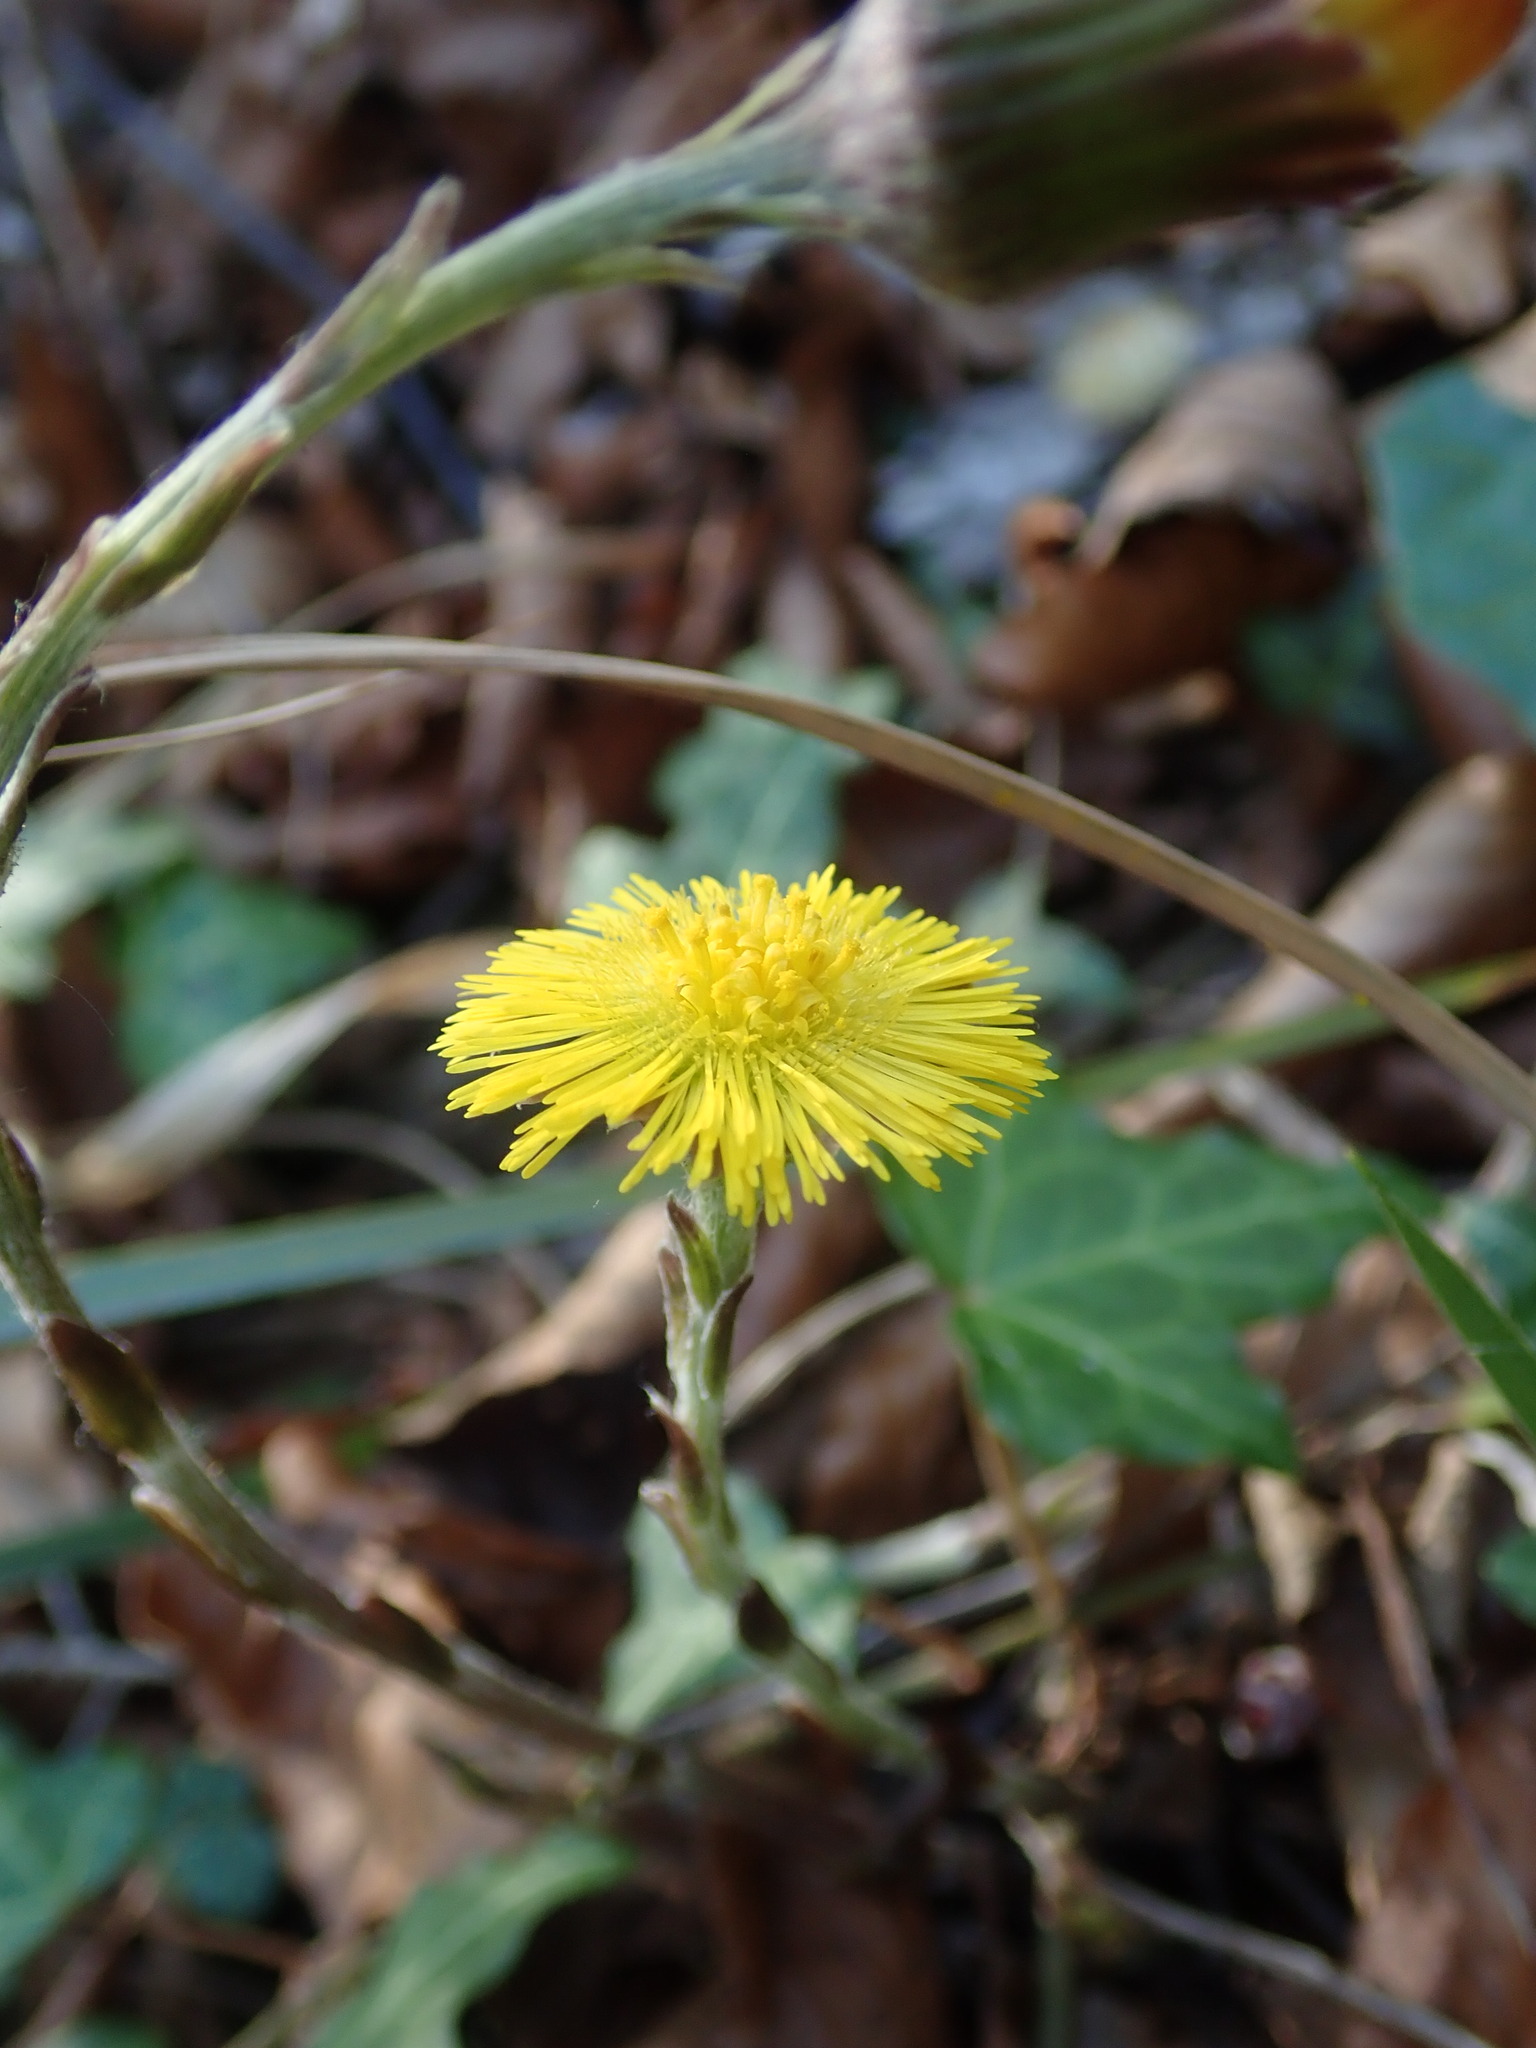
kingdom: Plantae
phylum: Tracheophyta
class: Magnoliopsida
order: Asterales
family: Asteraceae
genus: Tussilago
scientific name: Tussilago farfara
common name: Coltsfoot
